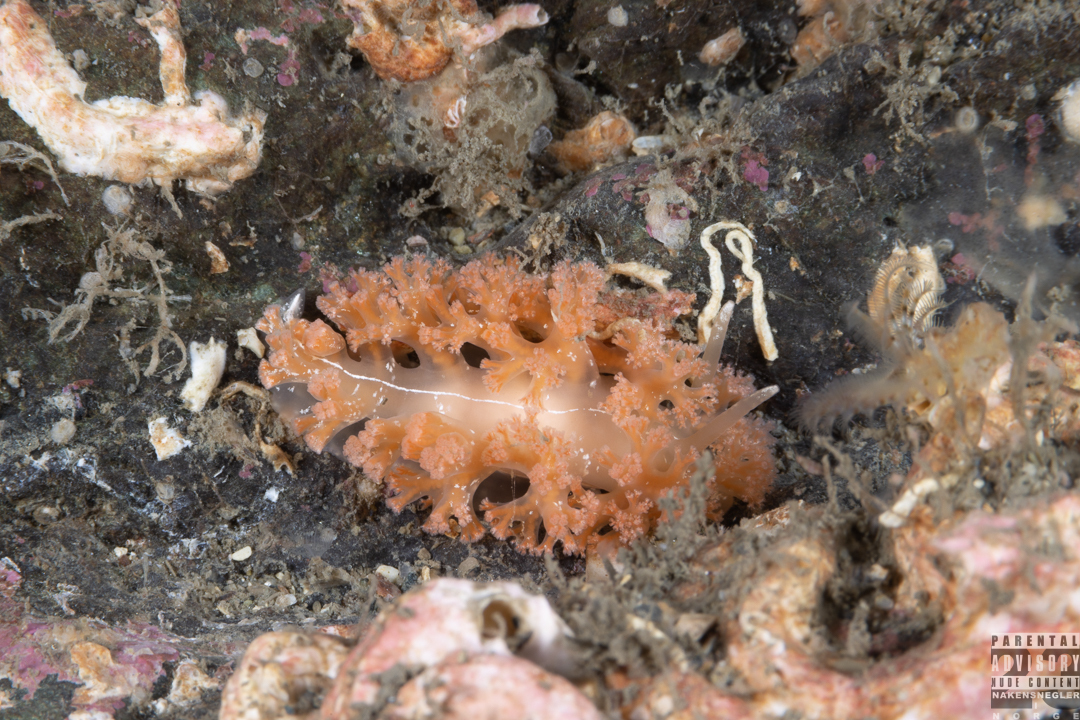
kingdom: Animalia
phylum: Mollusca
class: Gastropoda
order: Nudibranchia
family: Heroidae
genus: Hero
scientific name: Hero formosa
